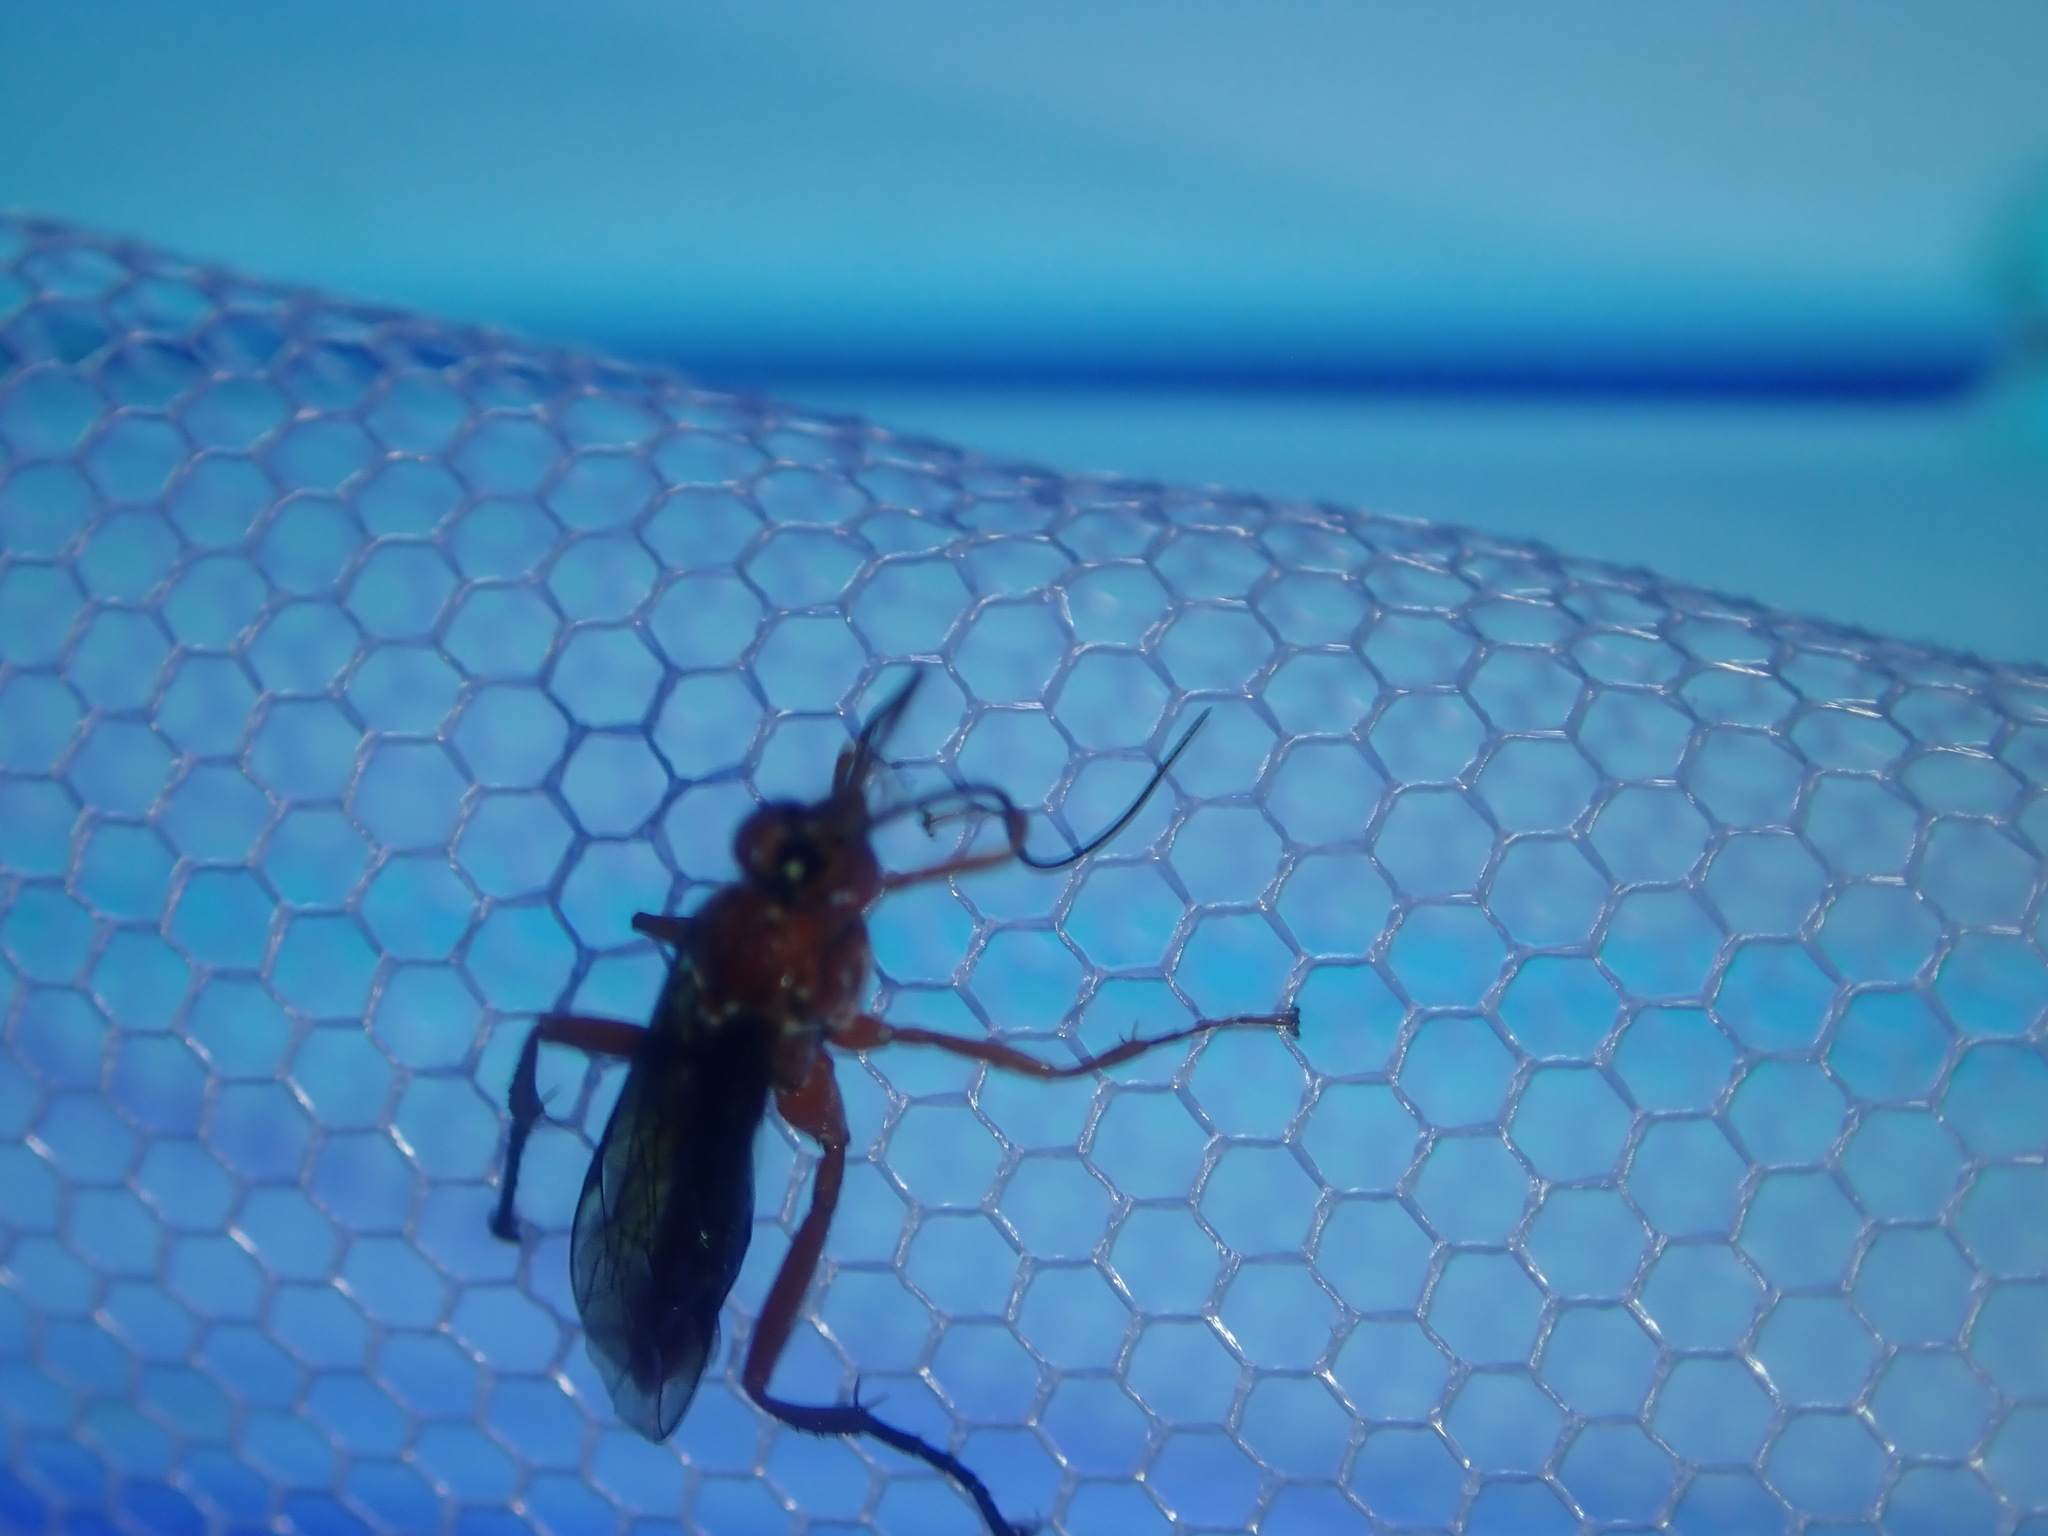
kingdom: Animalia
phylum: Arthropoda
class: Insecta
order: Hymenoptera
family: Ichneumonidae
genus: Lissopimpla
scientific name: Lissopimpla excelsa
